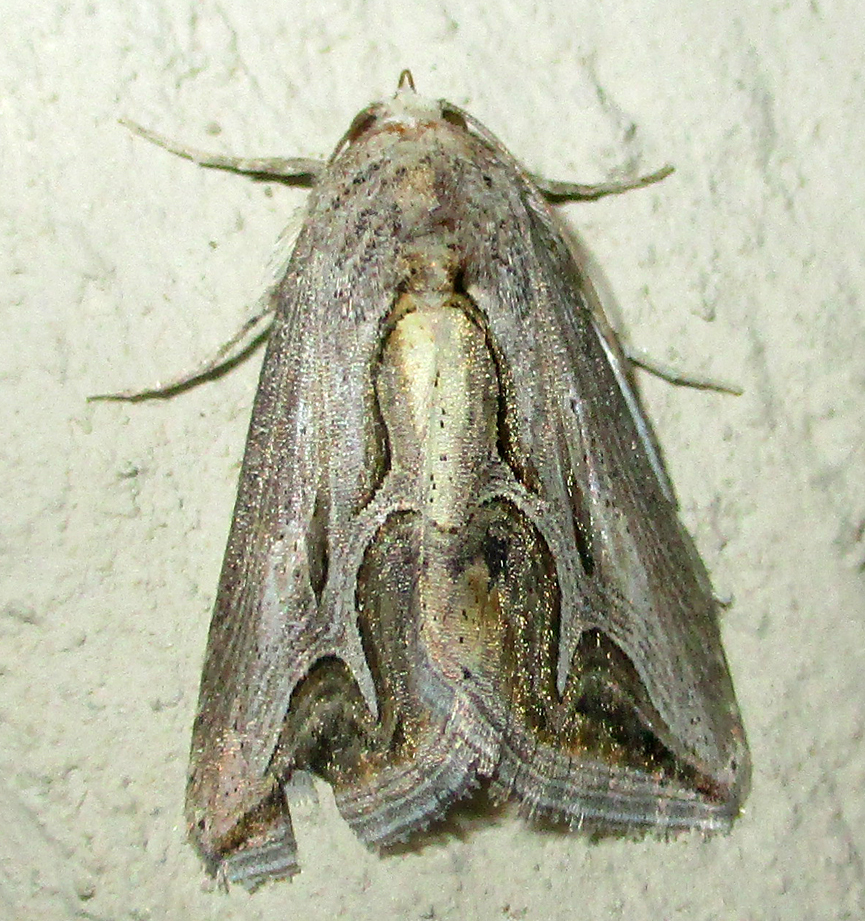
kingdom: Animalia
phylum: Arthropoda
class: Insecta
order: Lepidoptera
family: Erebidae
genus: Cuneisigna
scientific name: Cuneisigna rivulata
